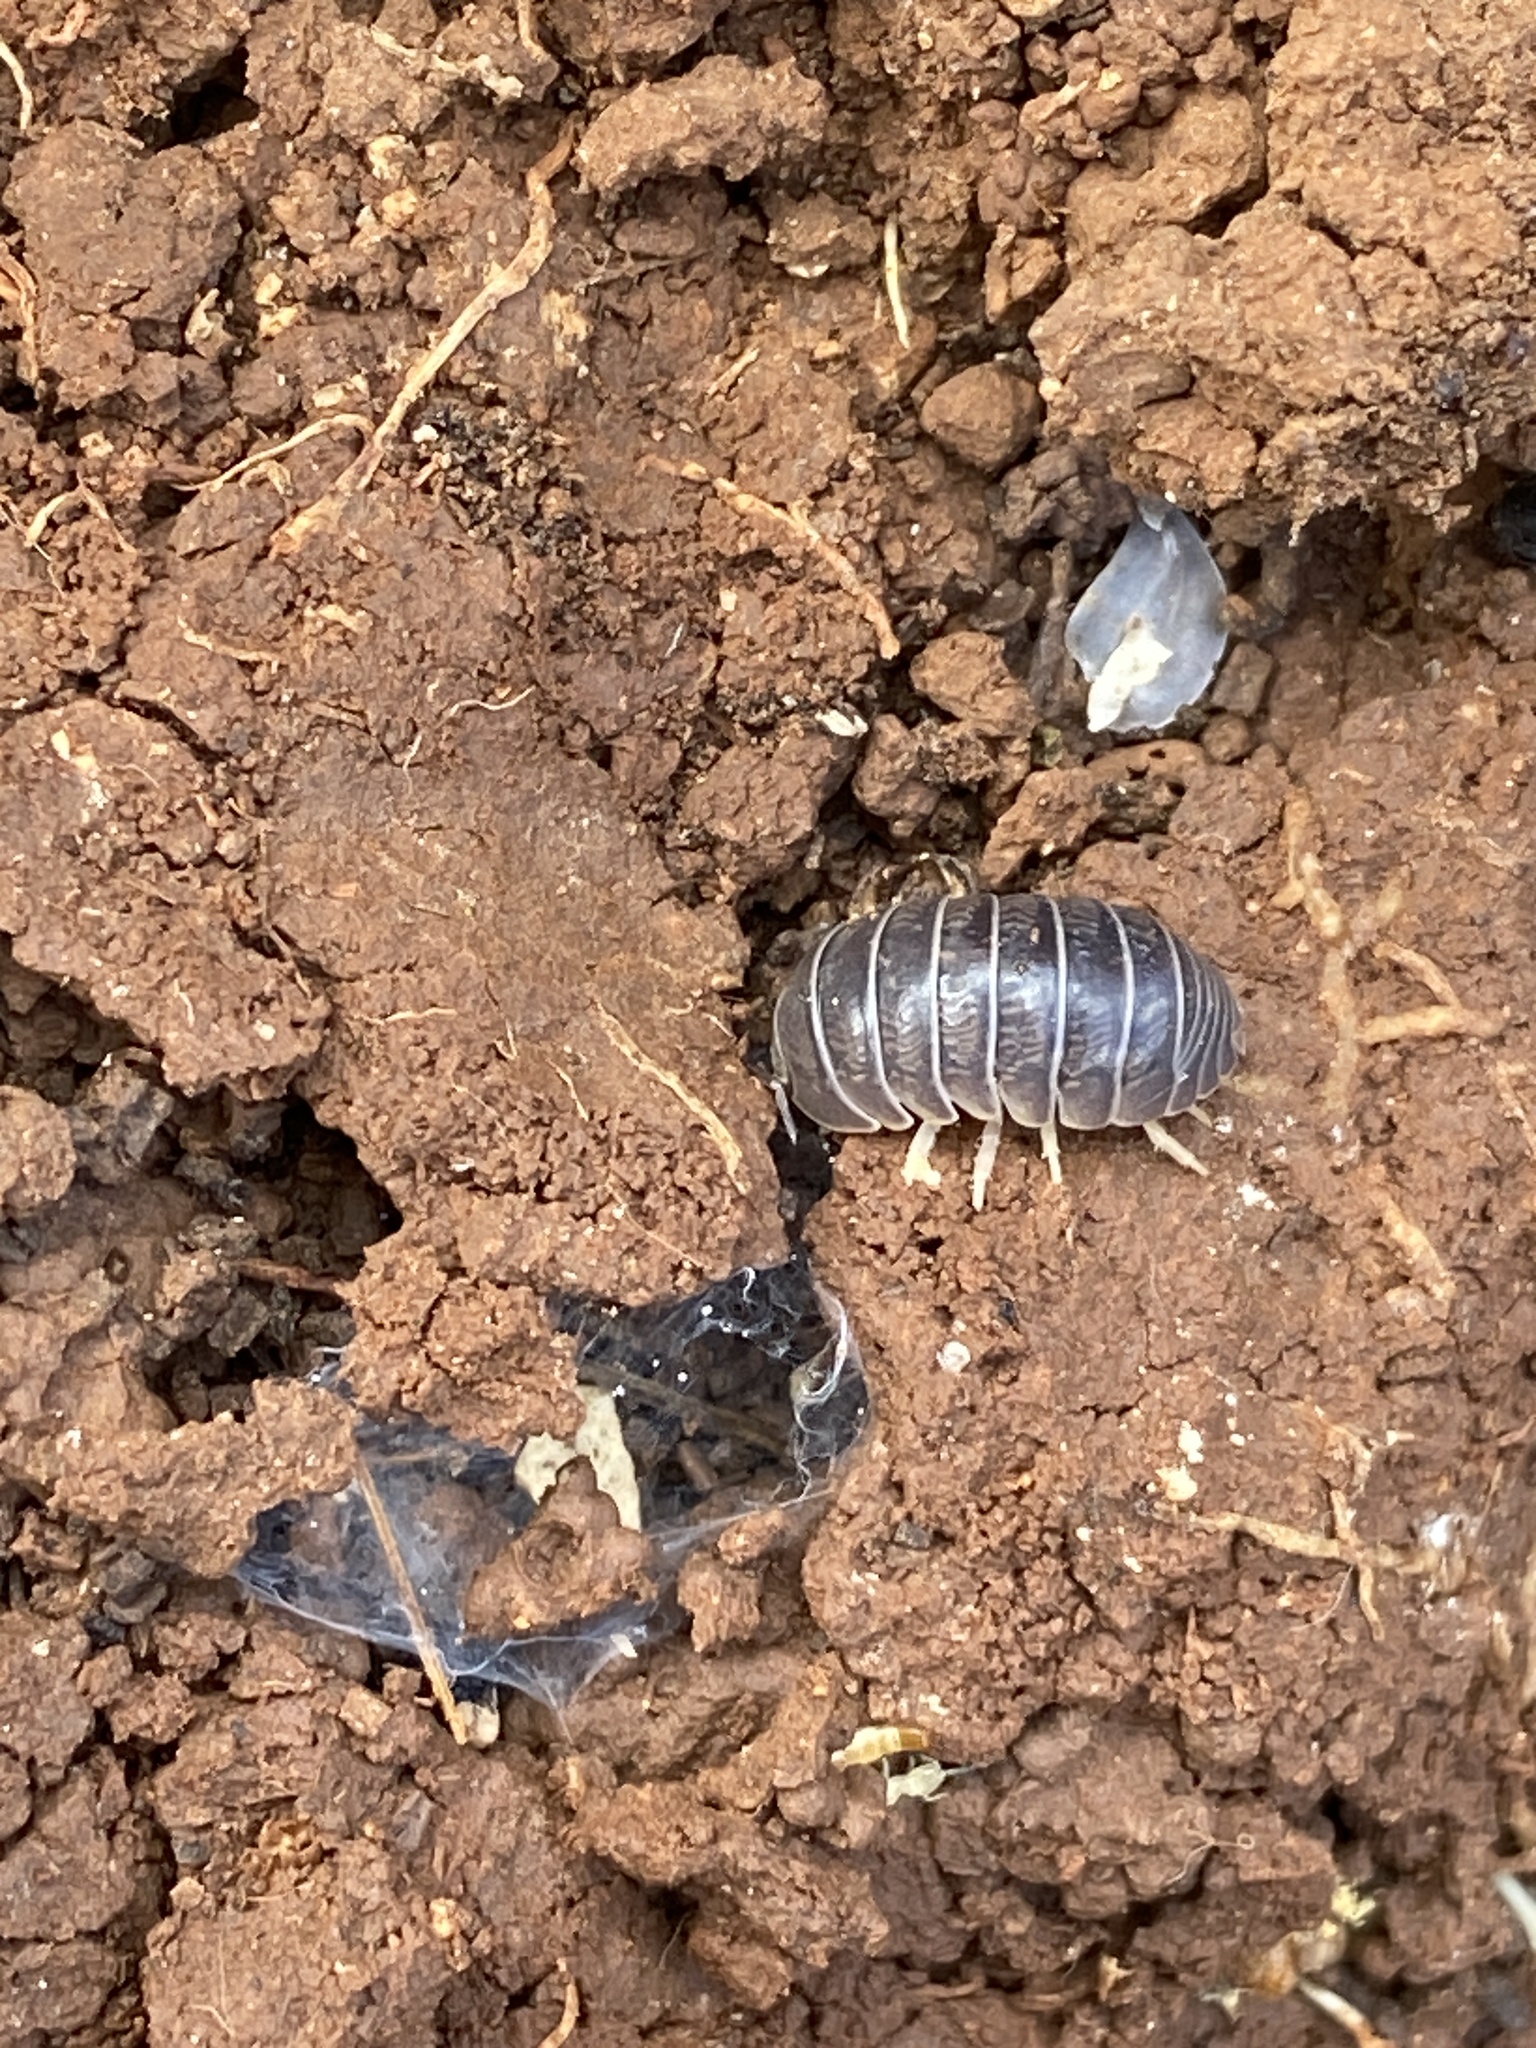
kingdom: Animalia
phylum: Arthropoda
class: Malacostraca
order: Isopoda
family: Armadillidiidae
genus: Armadillidium
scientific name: Armadillidium badium
